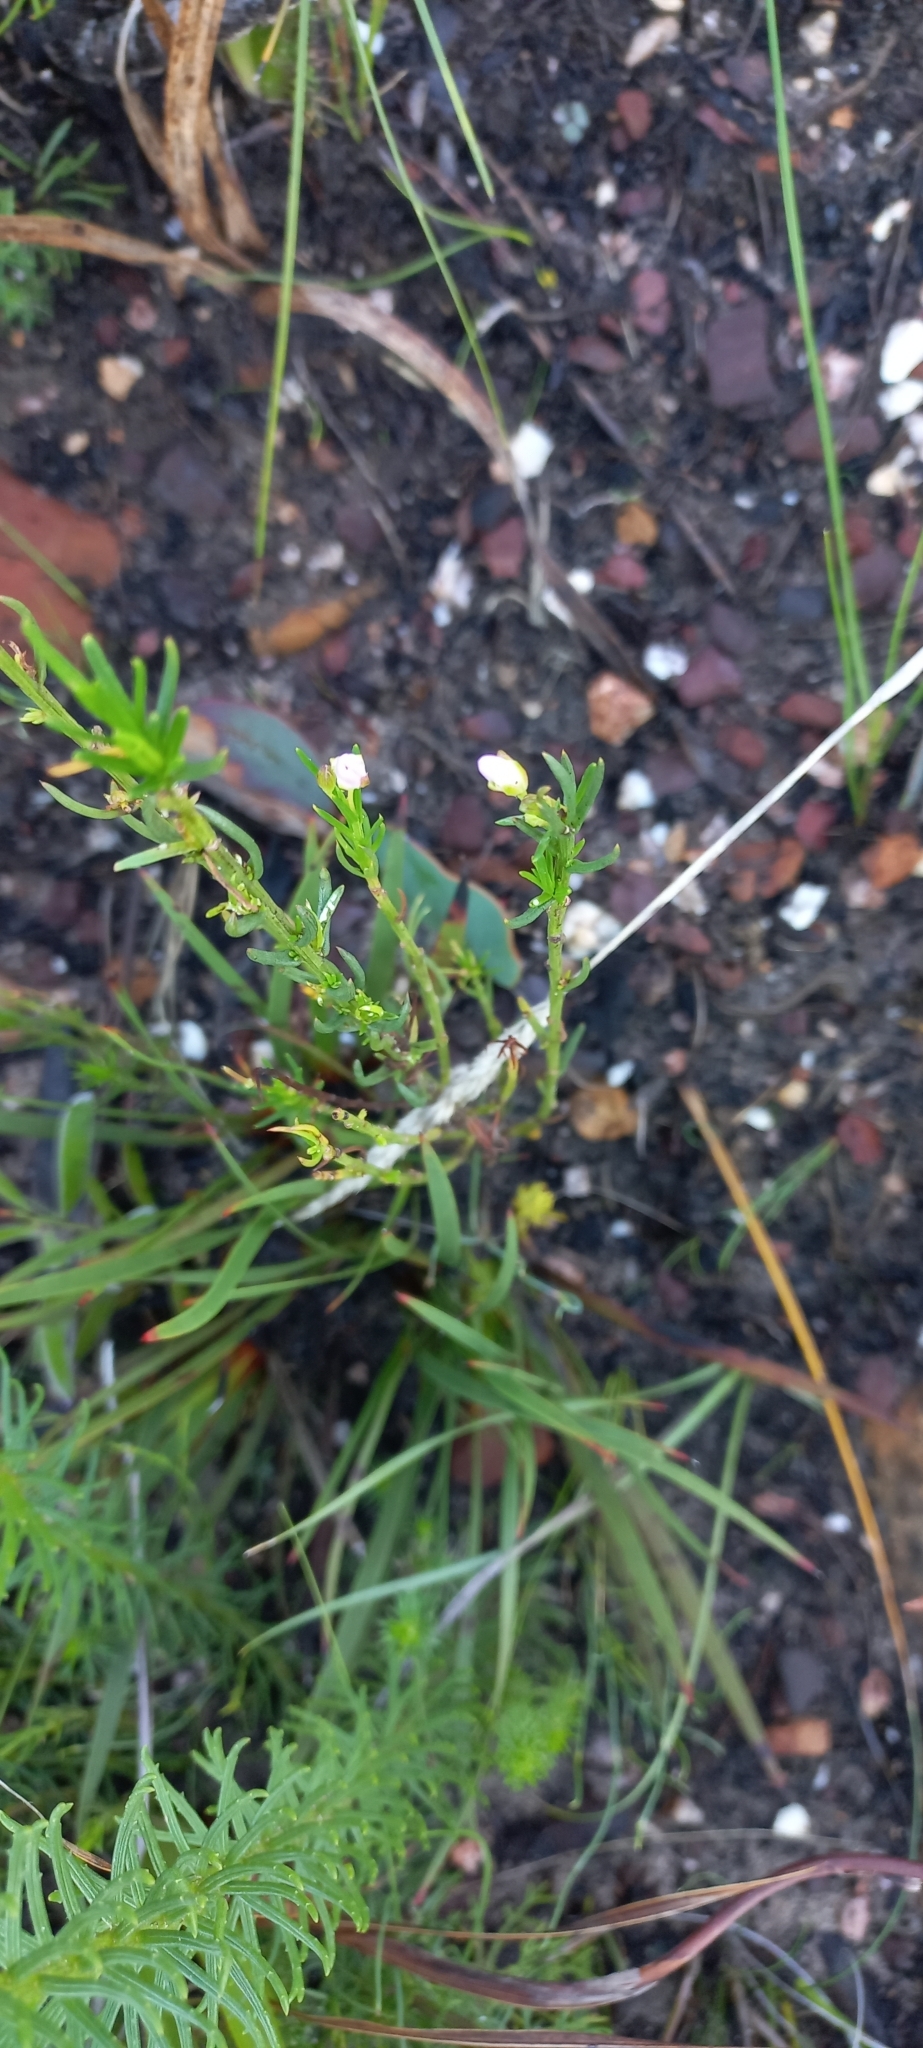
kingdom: Plantae
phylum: Tracheophyta
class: Magnoliopsida
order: Brassicales
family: Brassicaceae
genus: Heliophila
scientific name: Heliophila scoparia
